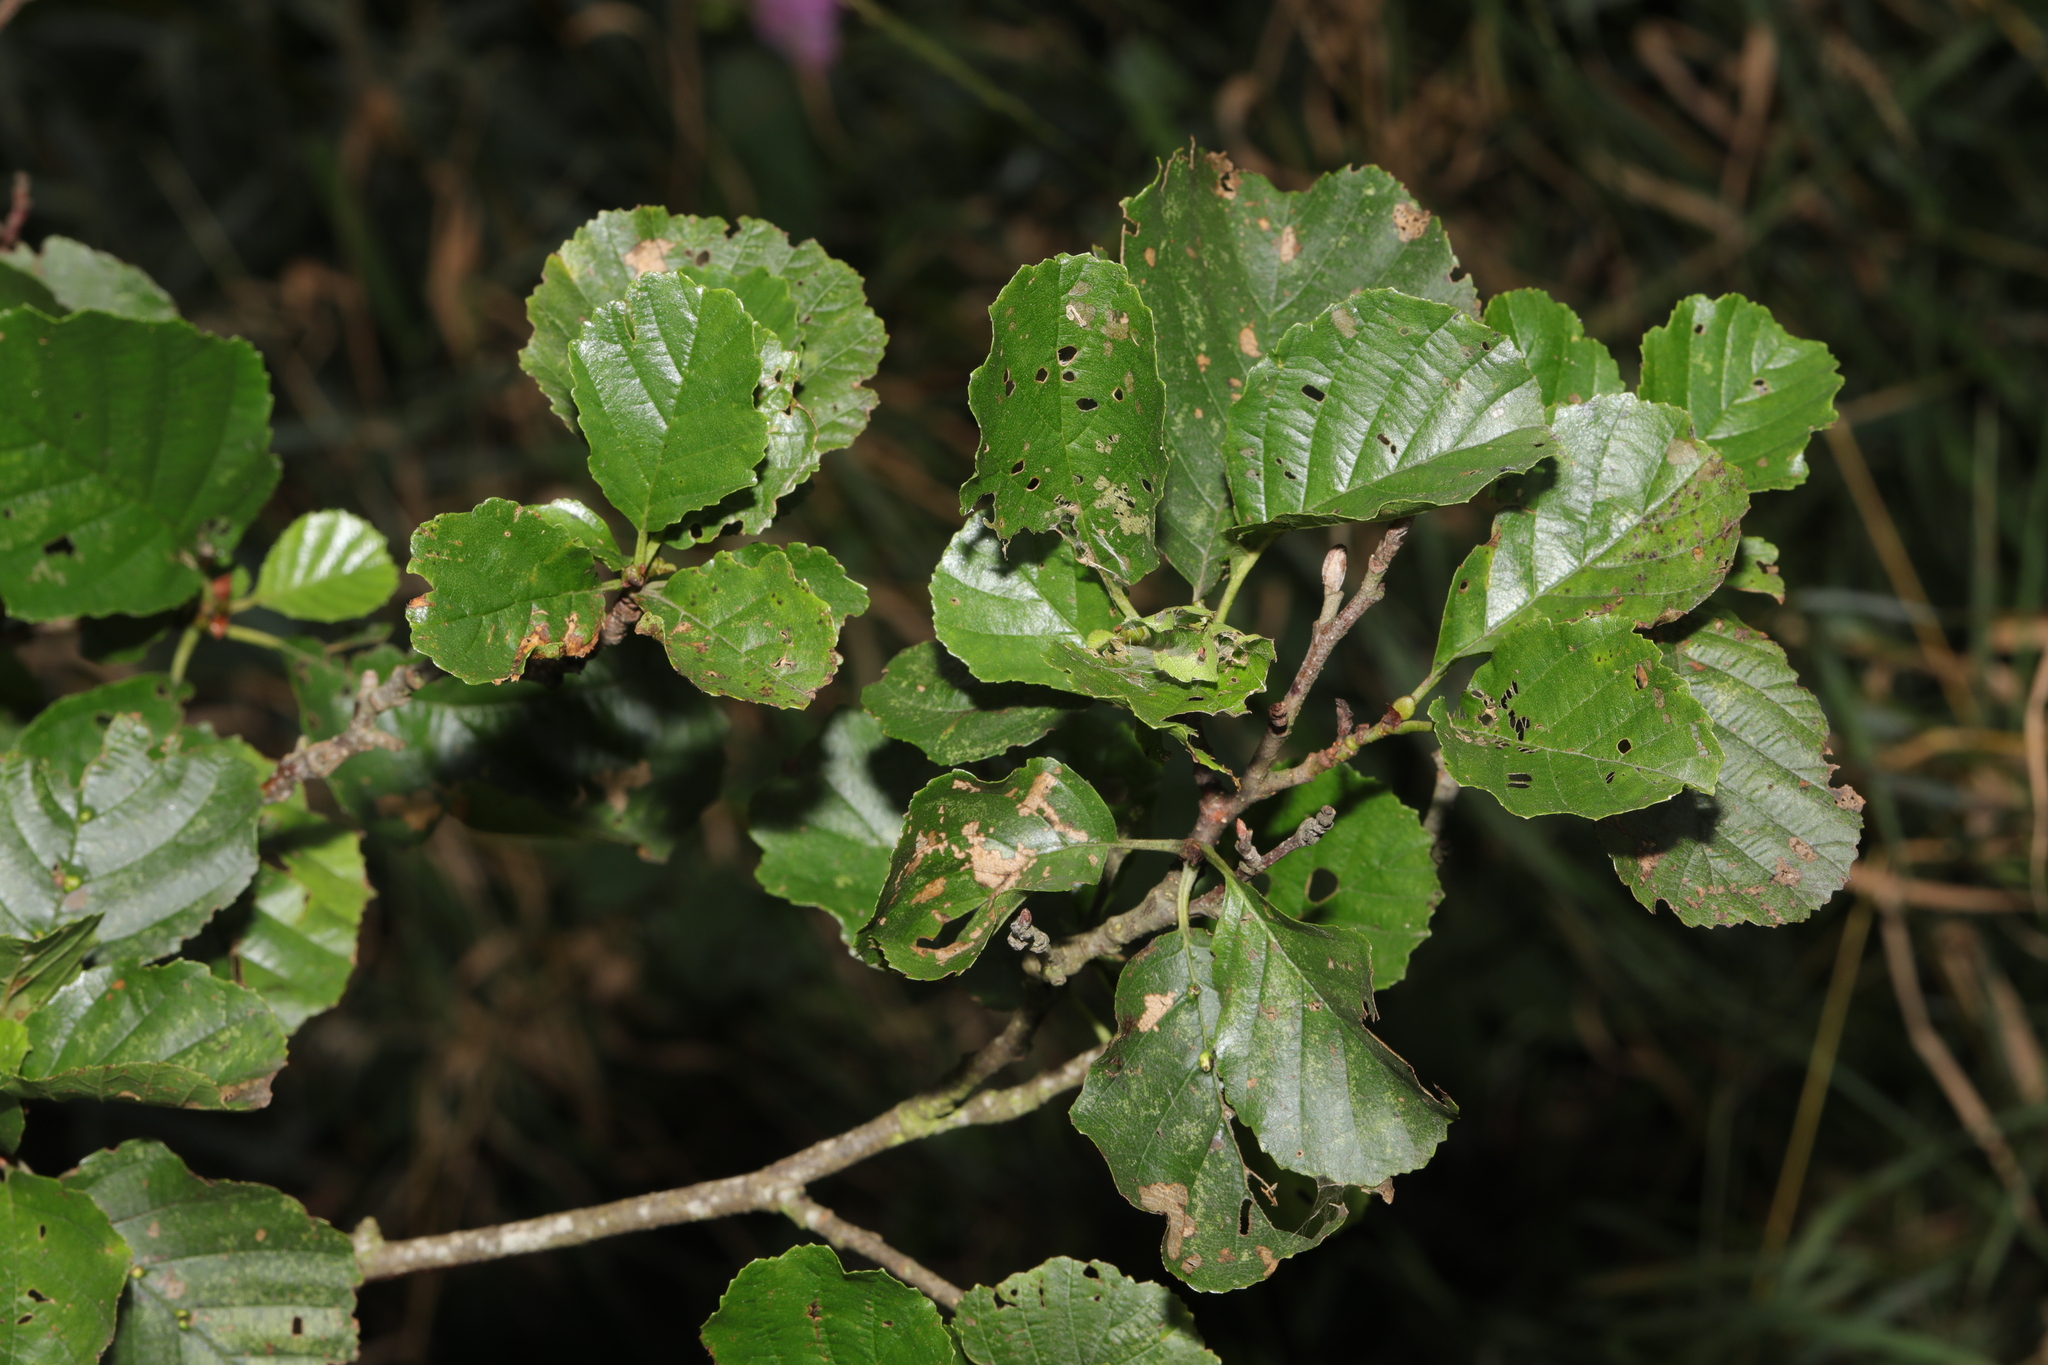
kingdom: Plantae
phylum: Tracheophyta
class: Magnoliopsida
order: Fagales
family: Betulaceae
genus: Alnus
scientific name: Alnus glutinosa
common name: Black alder
